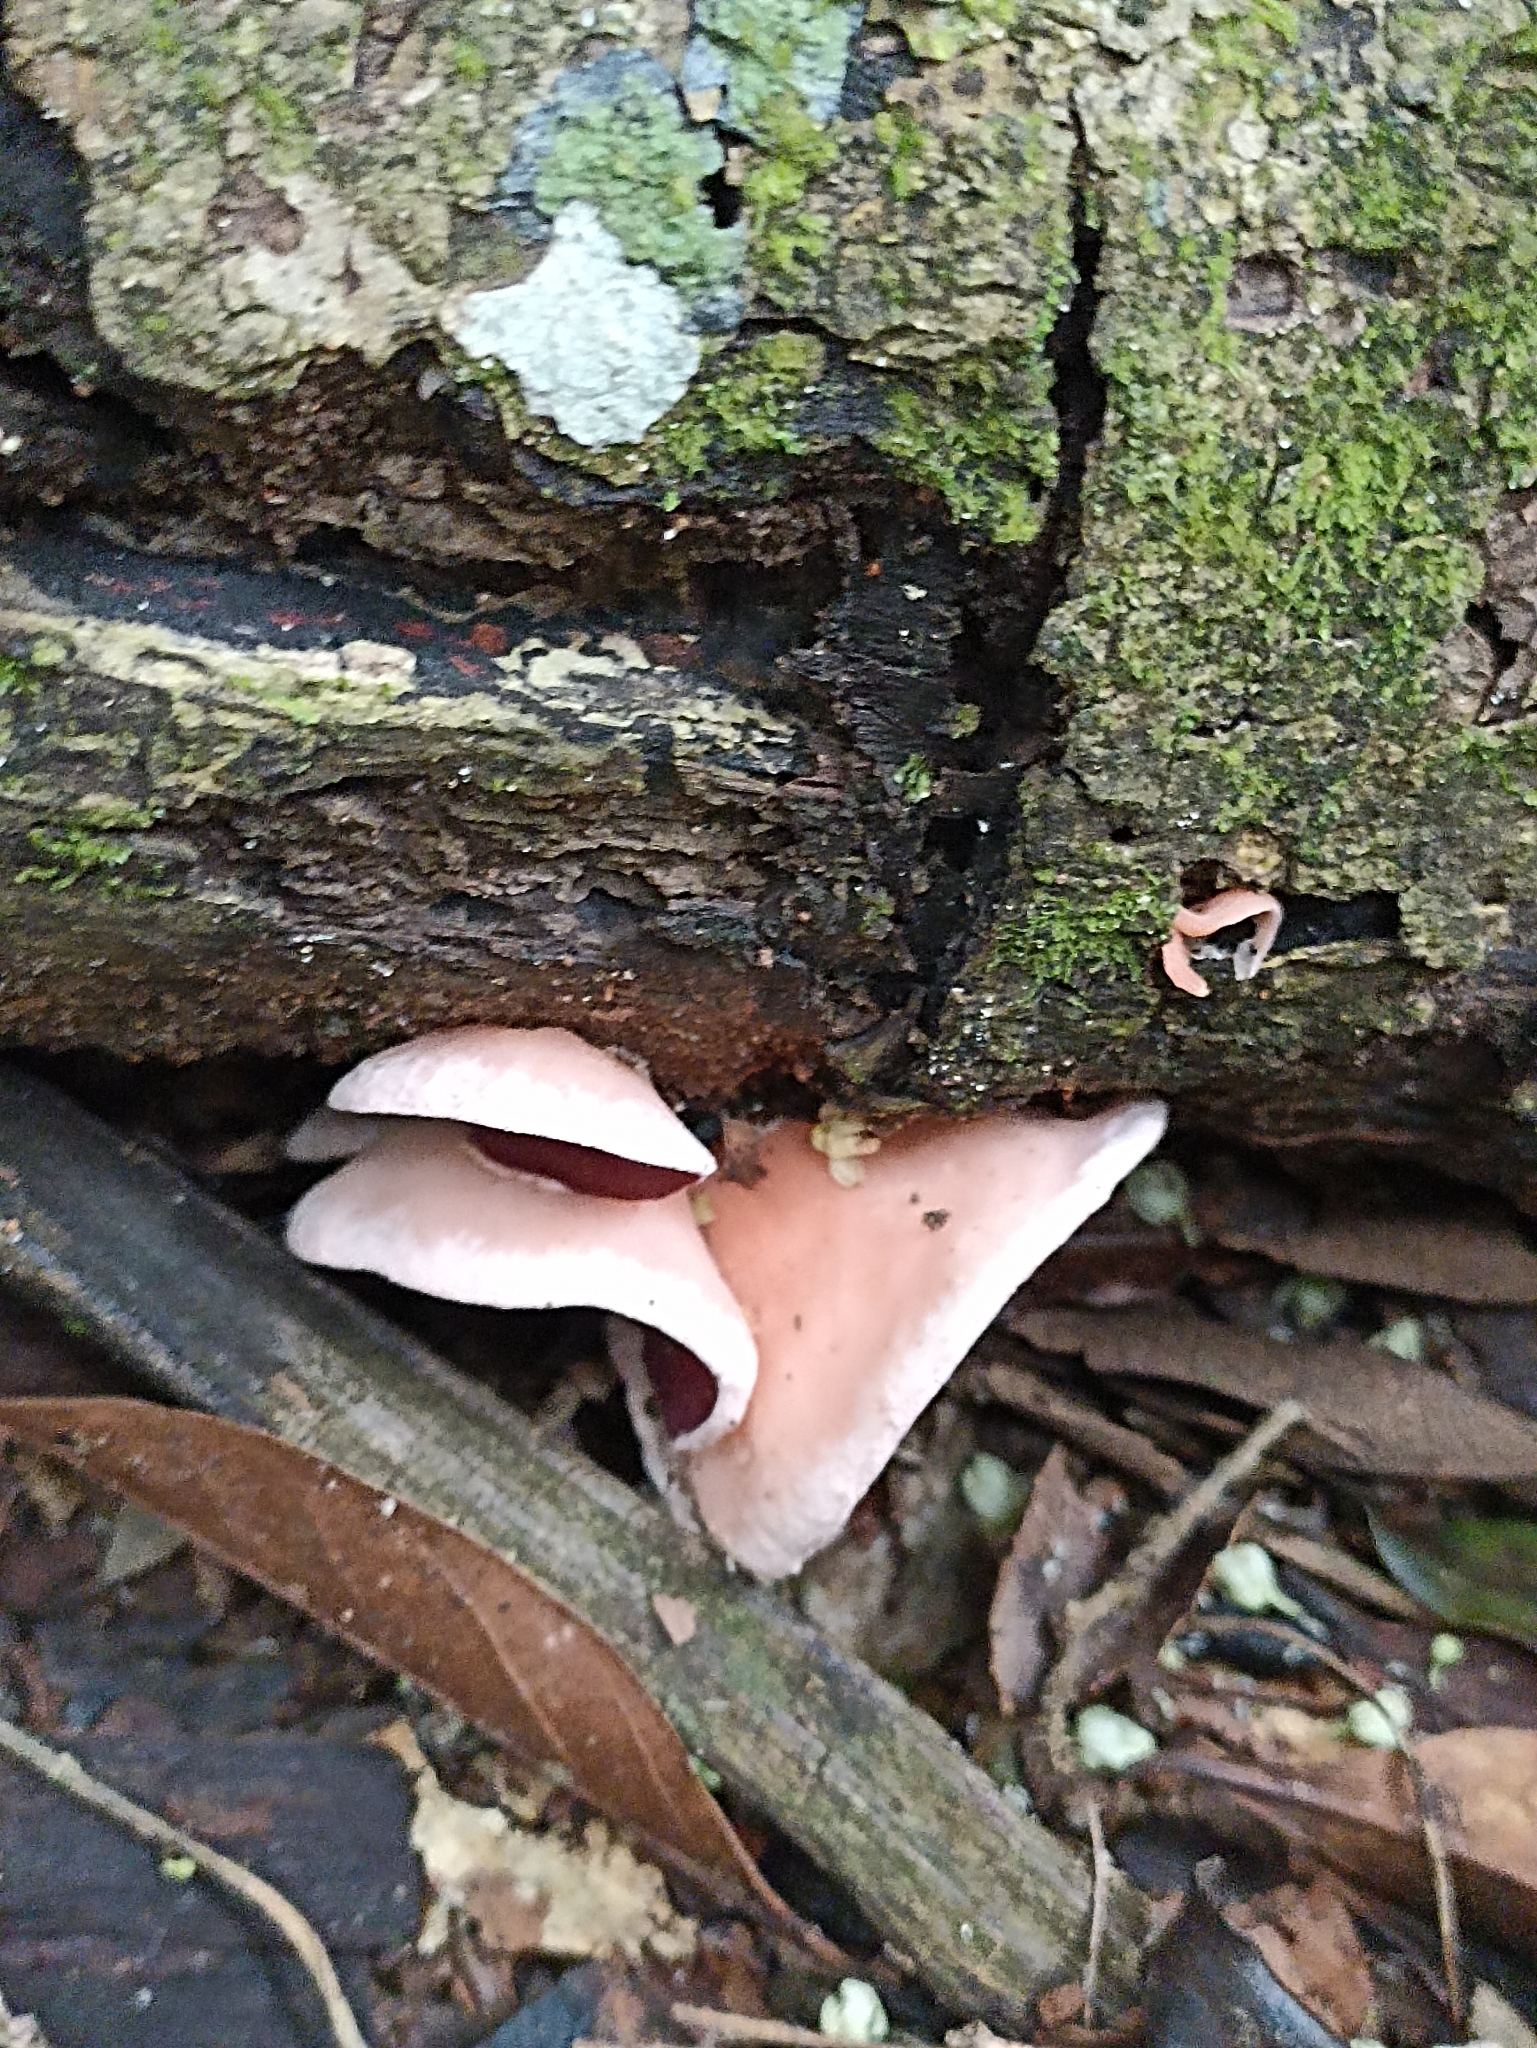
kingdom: Fungi
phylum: Ascomycota
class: Pezizomycetes
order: Pezizales
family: Sarcoscyphaceae
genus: Phillipsia
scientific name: Phillipsia domingensis
